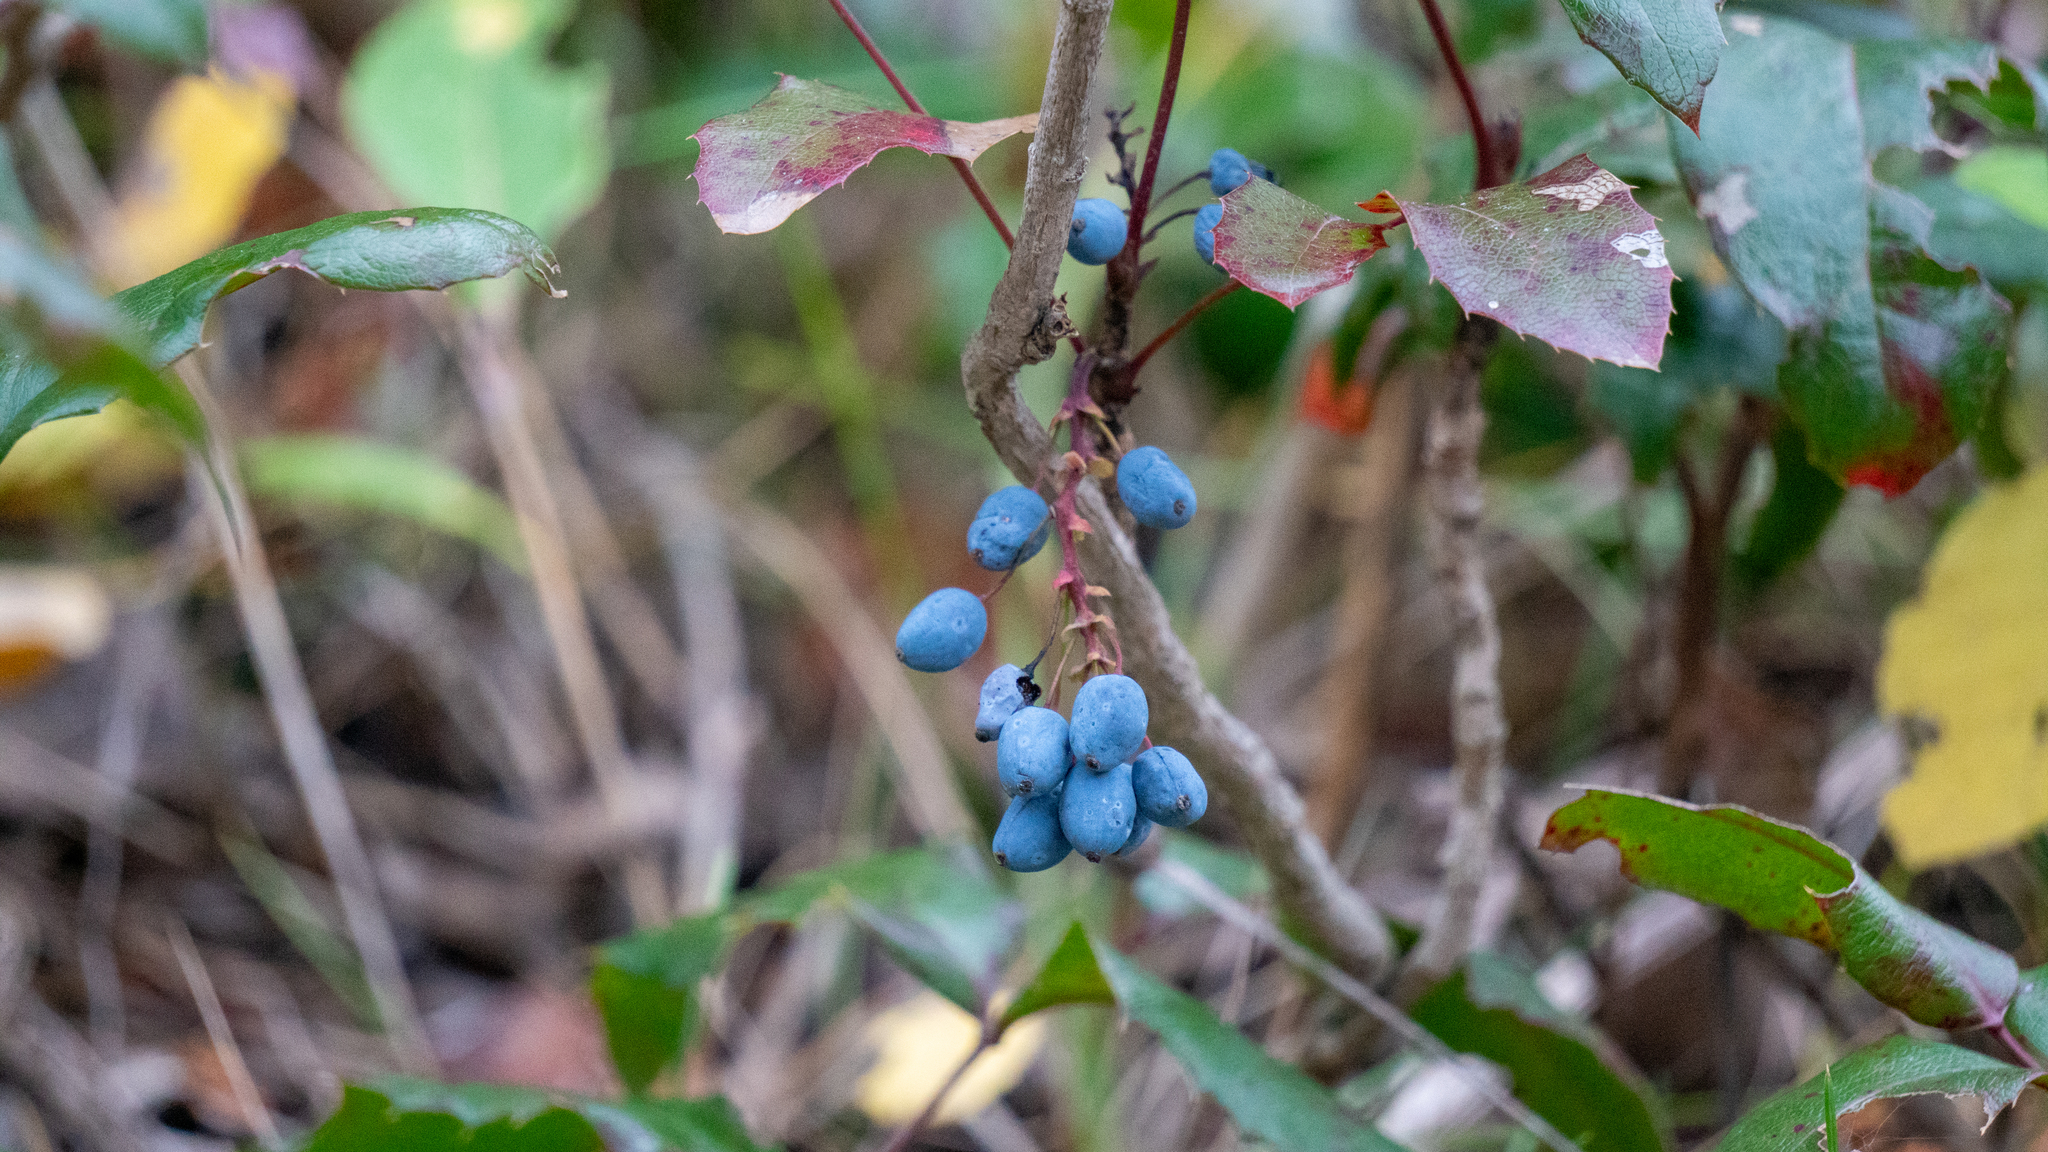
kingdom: Plantae
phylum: Tracheophyta
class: Magnoliopsida
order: Ranunculales
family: Berberidaceae
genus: Mahonia
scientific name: Mahonia aquifolium
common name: Oregon-grape
